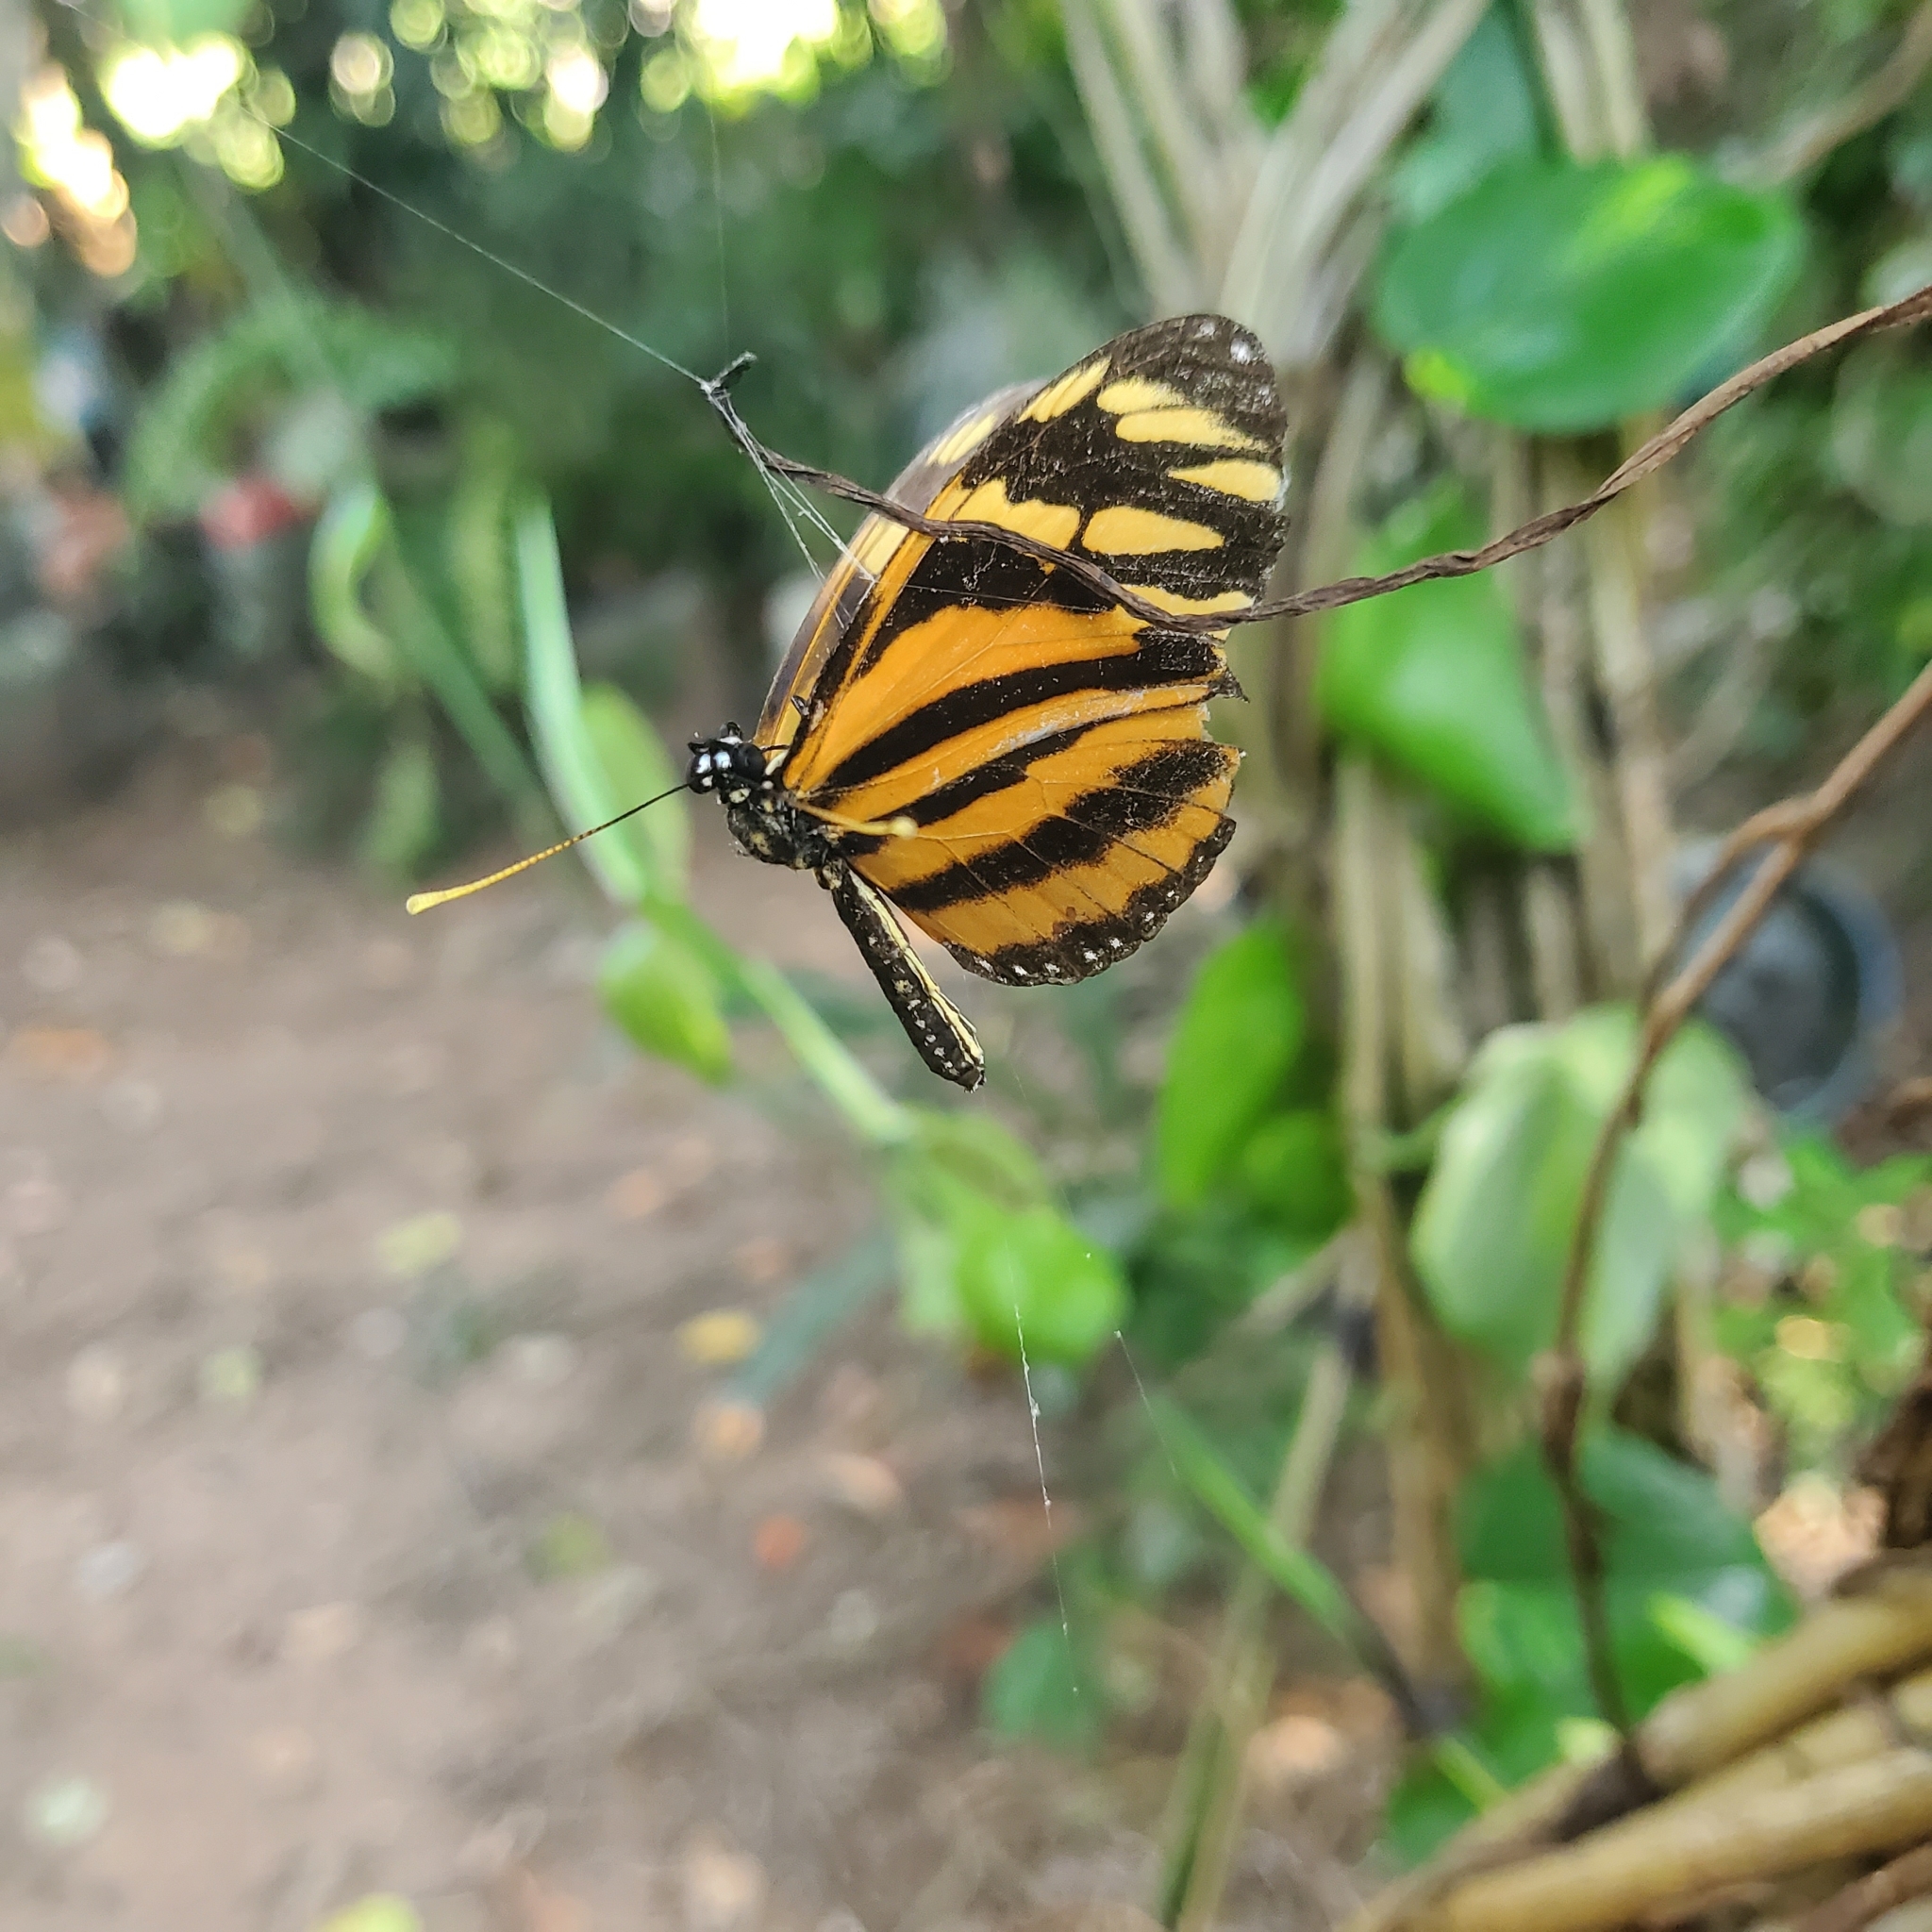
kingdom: Animalia
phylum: Arthropoda
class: Insecta
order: Lepidoptera
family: Nymphalidae
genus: Lycorea
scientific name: Lycorea eva
